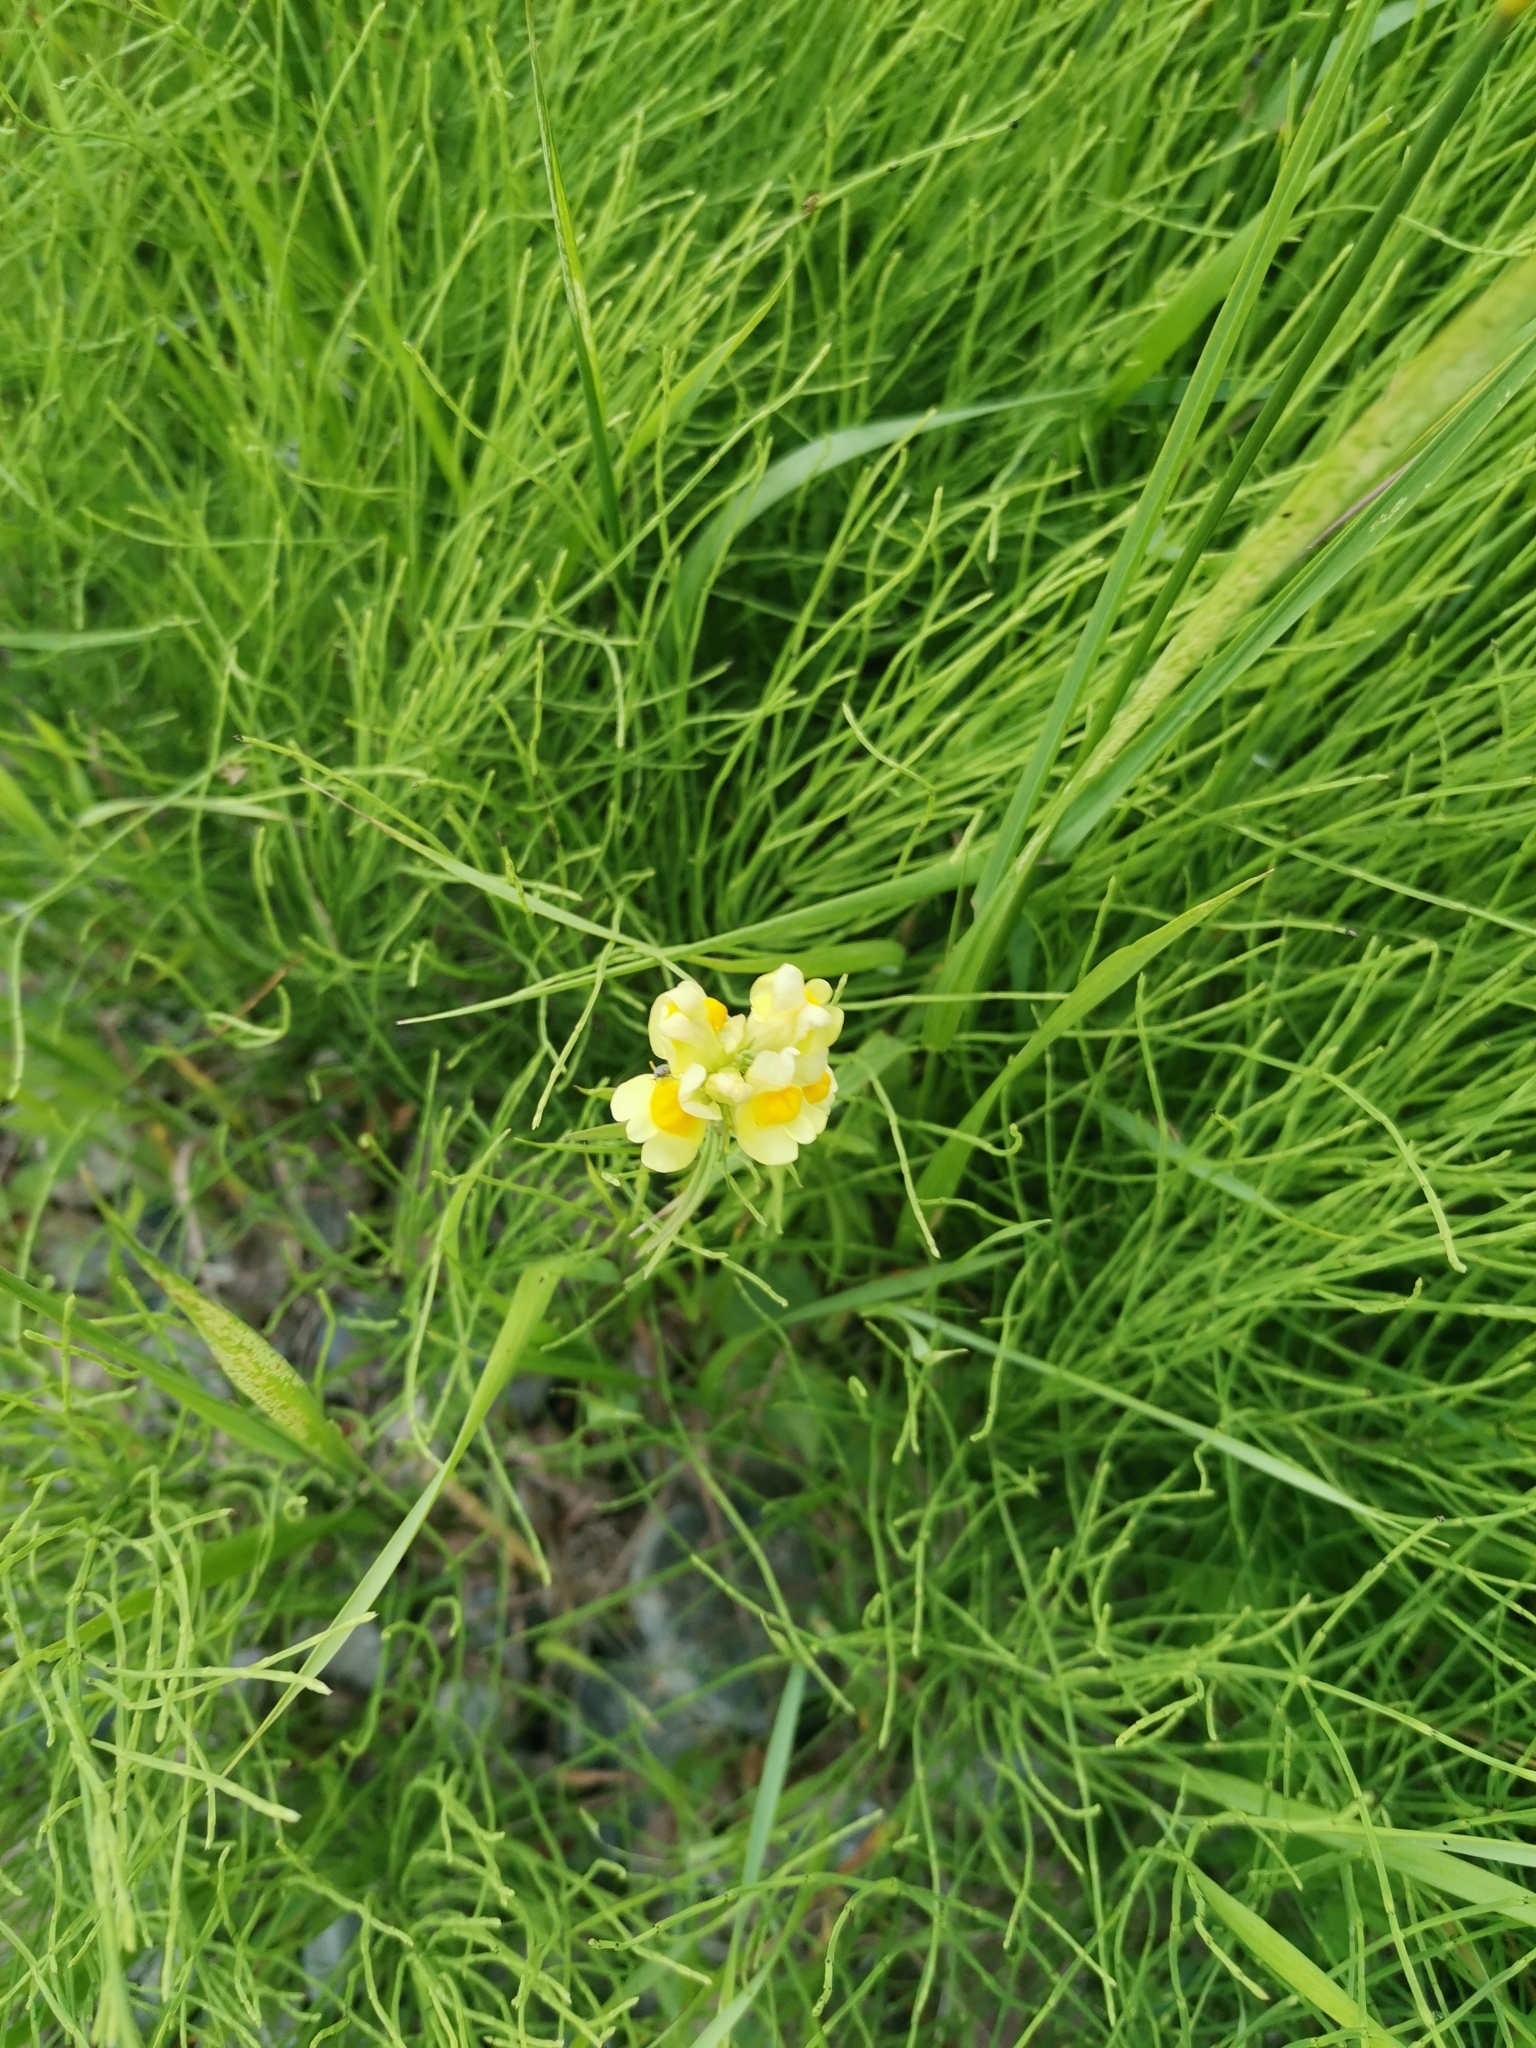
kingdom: Plantae
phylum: Tracheophyta
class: Magnoliopsida
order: Lamiales
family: Plantaginaceae
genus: Linaria
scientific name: Linaria vulgaris
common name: Butter and eggs
